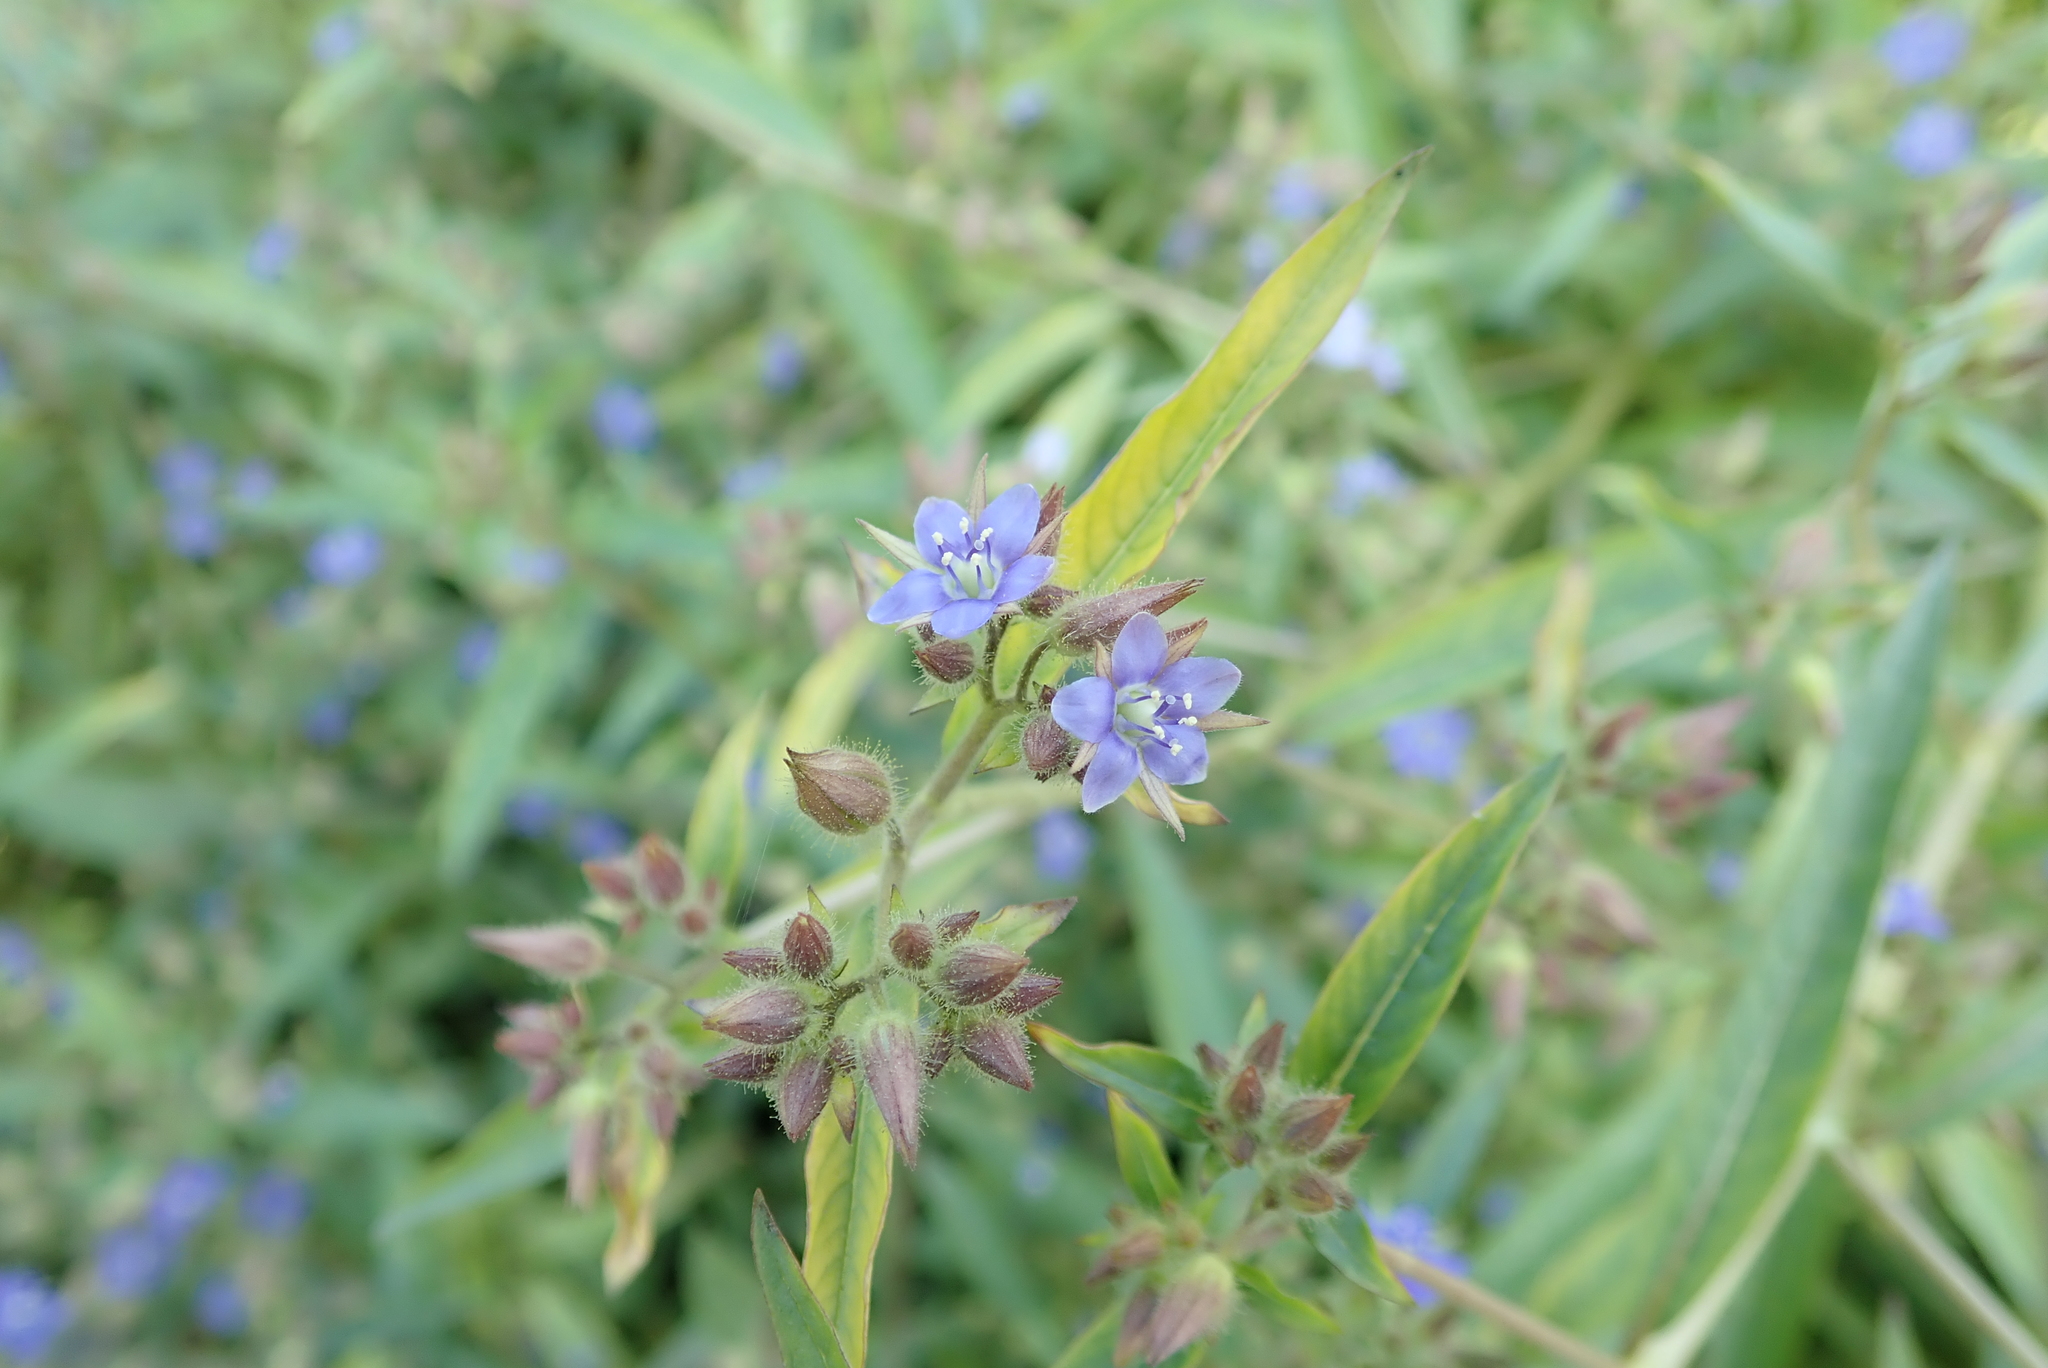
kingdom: Plantae
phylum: Tracheophyta
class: Magnoliopsida
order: Solanales
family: Hydroleaceae
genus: Hydrolea
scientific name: Hydrolea zeylanica
